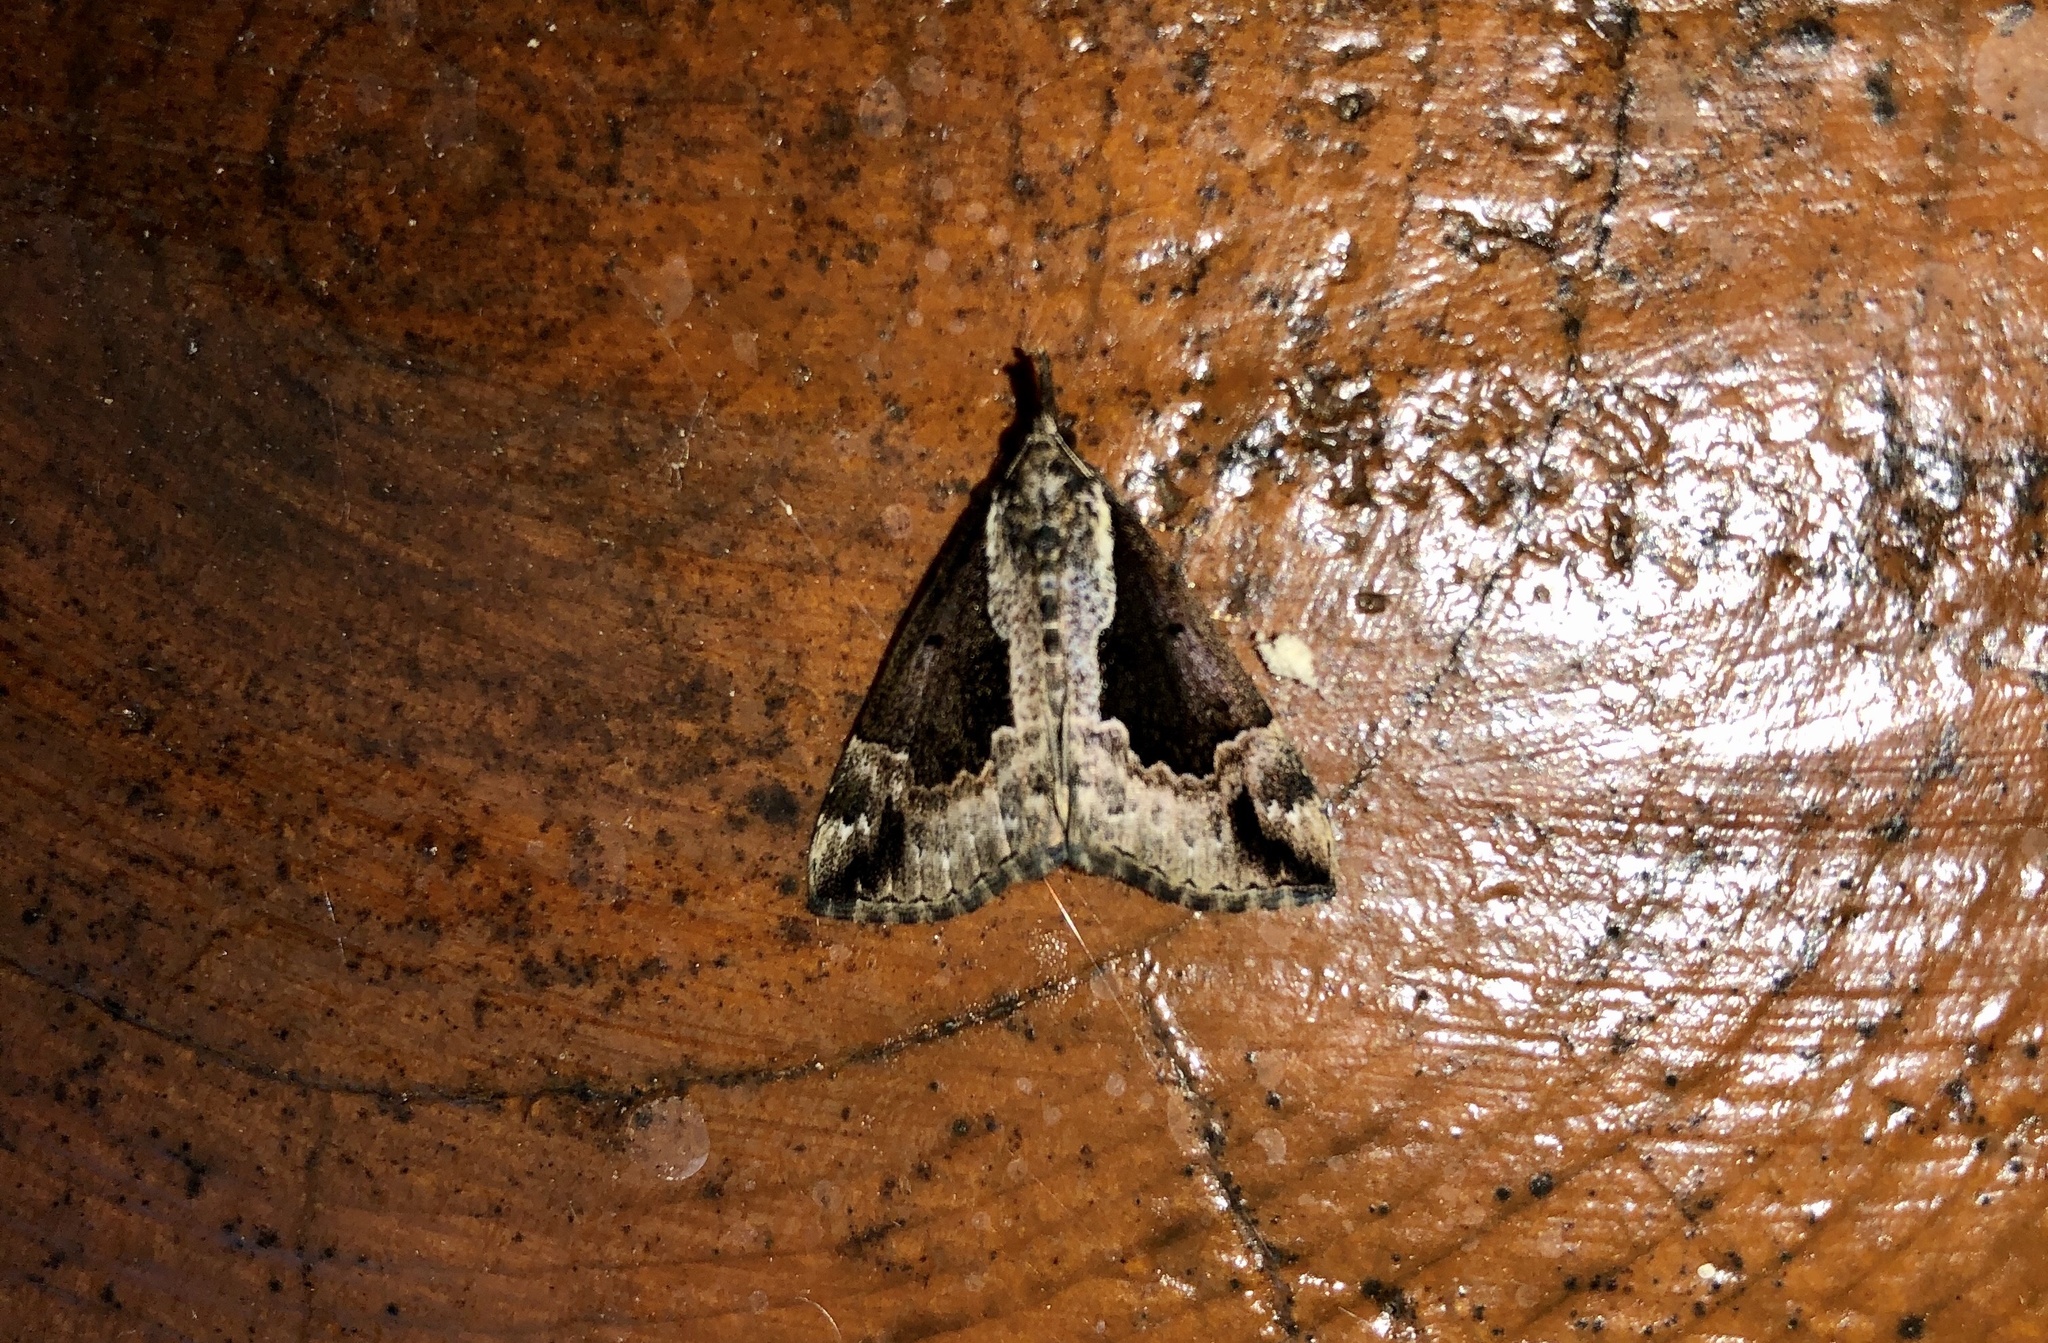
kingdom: Animalia
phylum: Arthropoda
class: Insecta
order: Lepidoptera
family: Erebidae
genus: Hypena
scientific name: Hypena baltimoralis
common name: Baltimore snout
